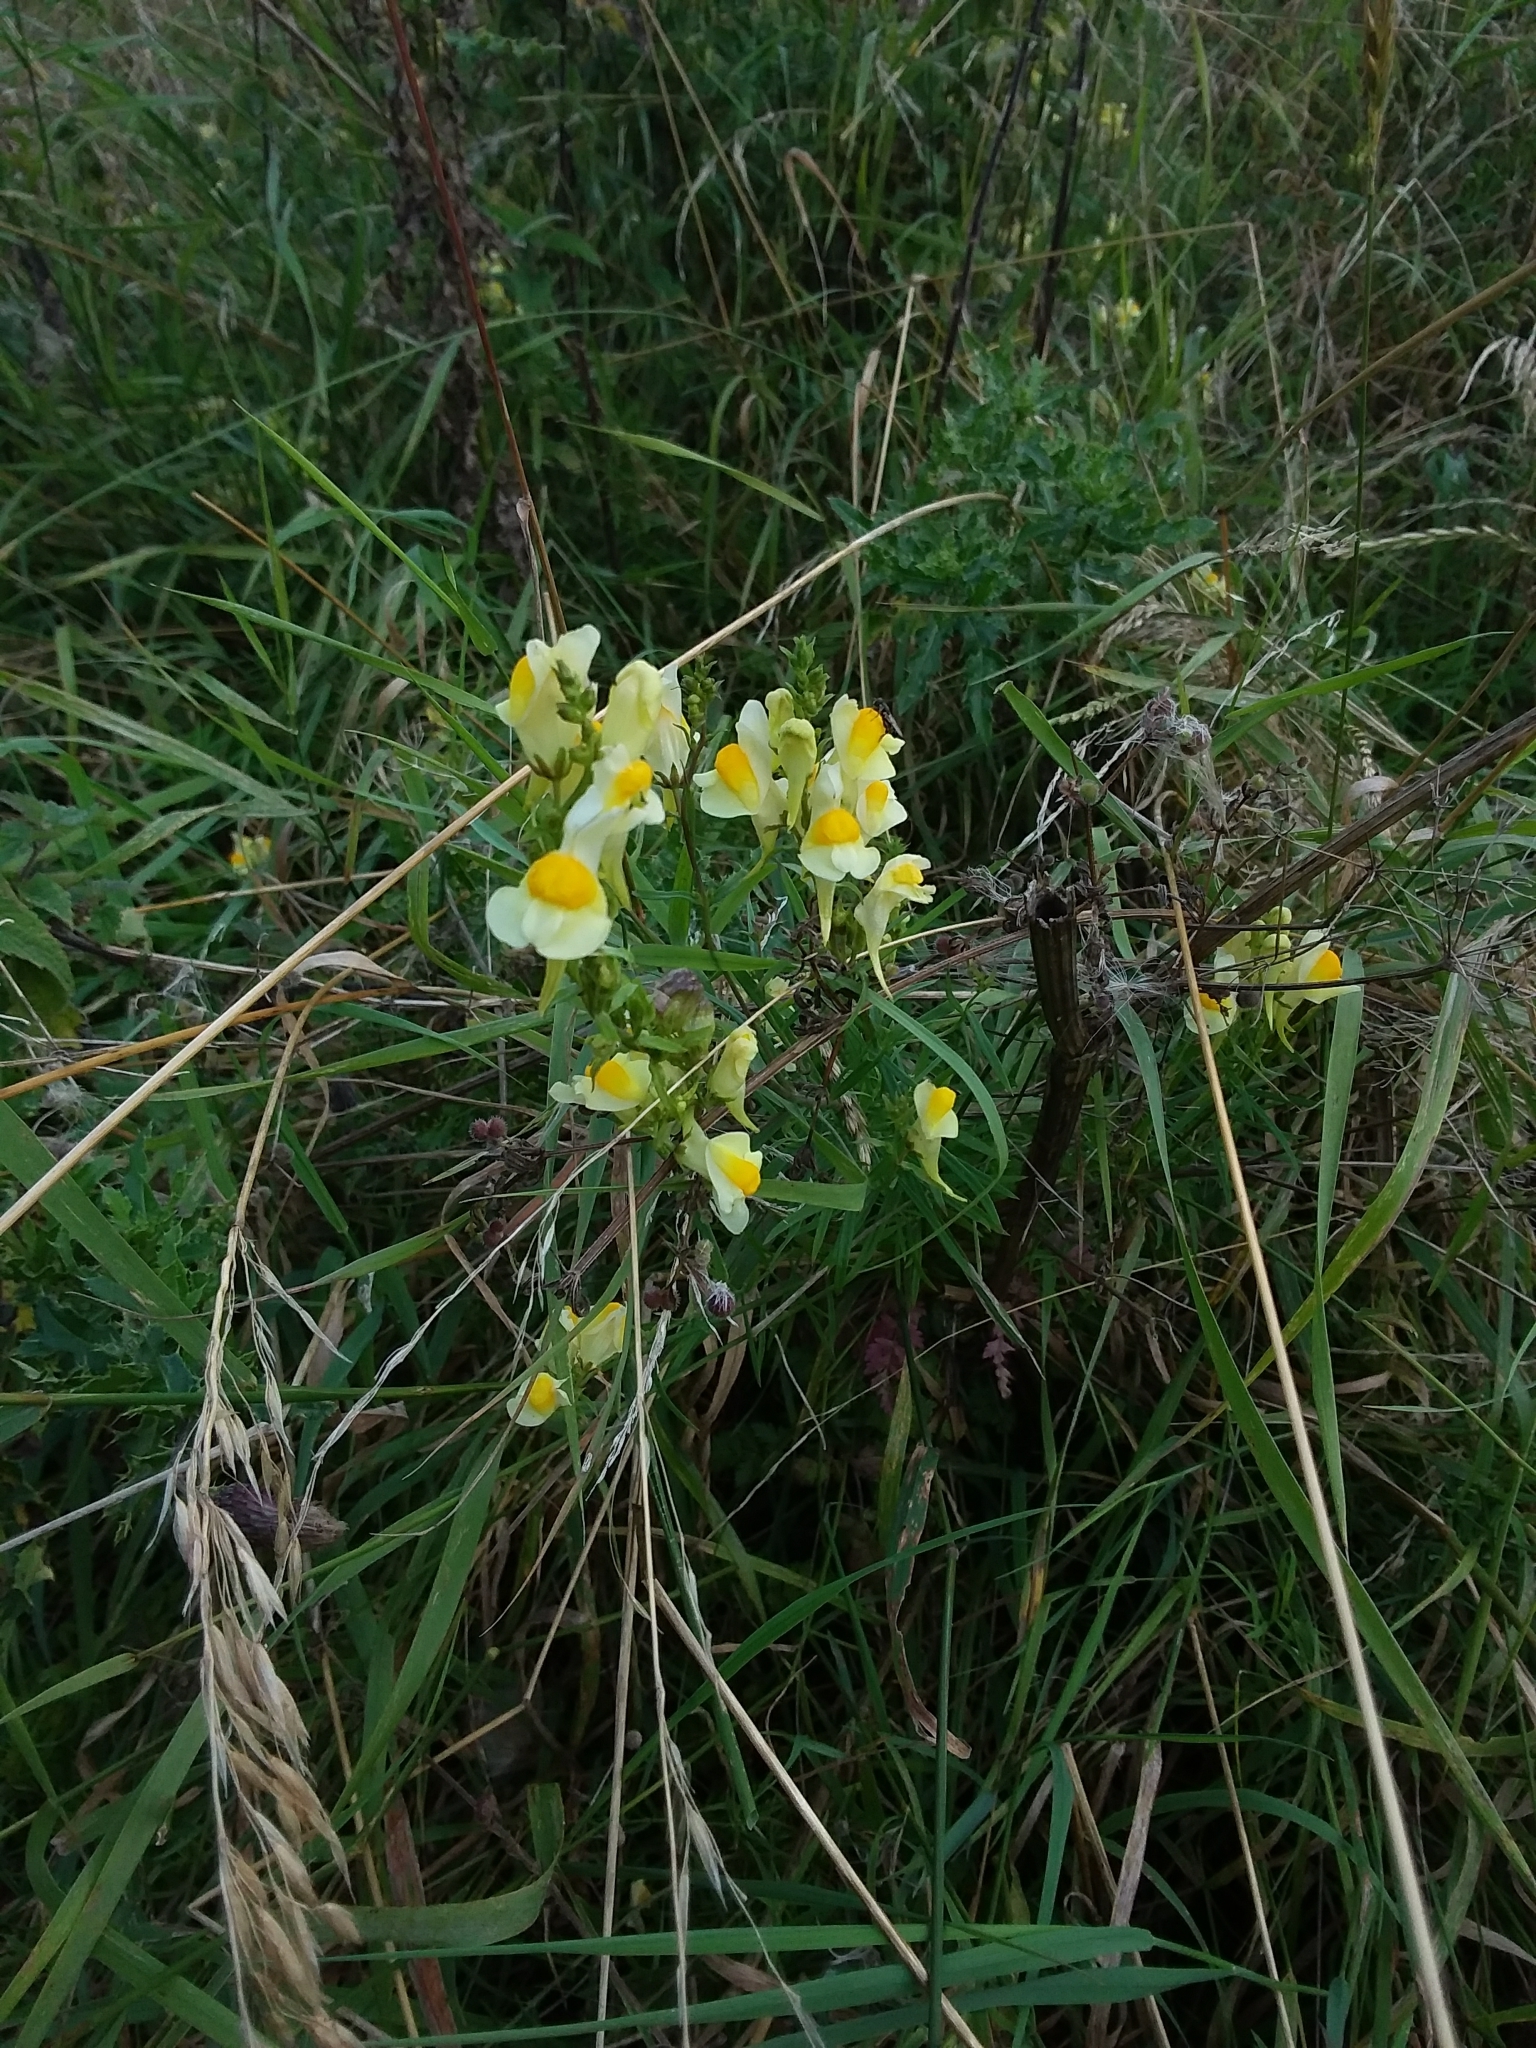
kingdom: Plantae
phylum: Tracheophyta
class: Magnoliopsida
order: Lamiales
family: Plantaginaceae
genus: Linaria
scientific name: Linaria vulgaris
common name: Butter and eggs
